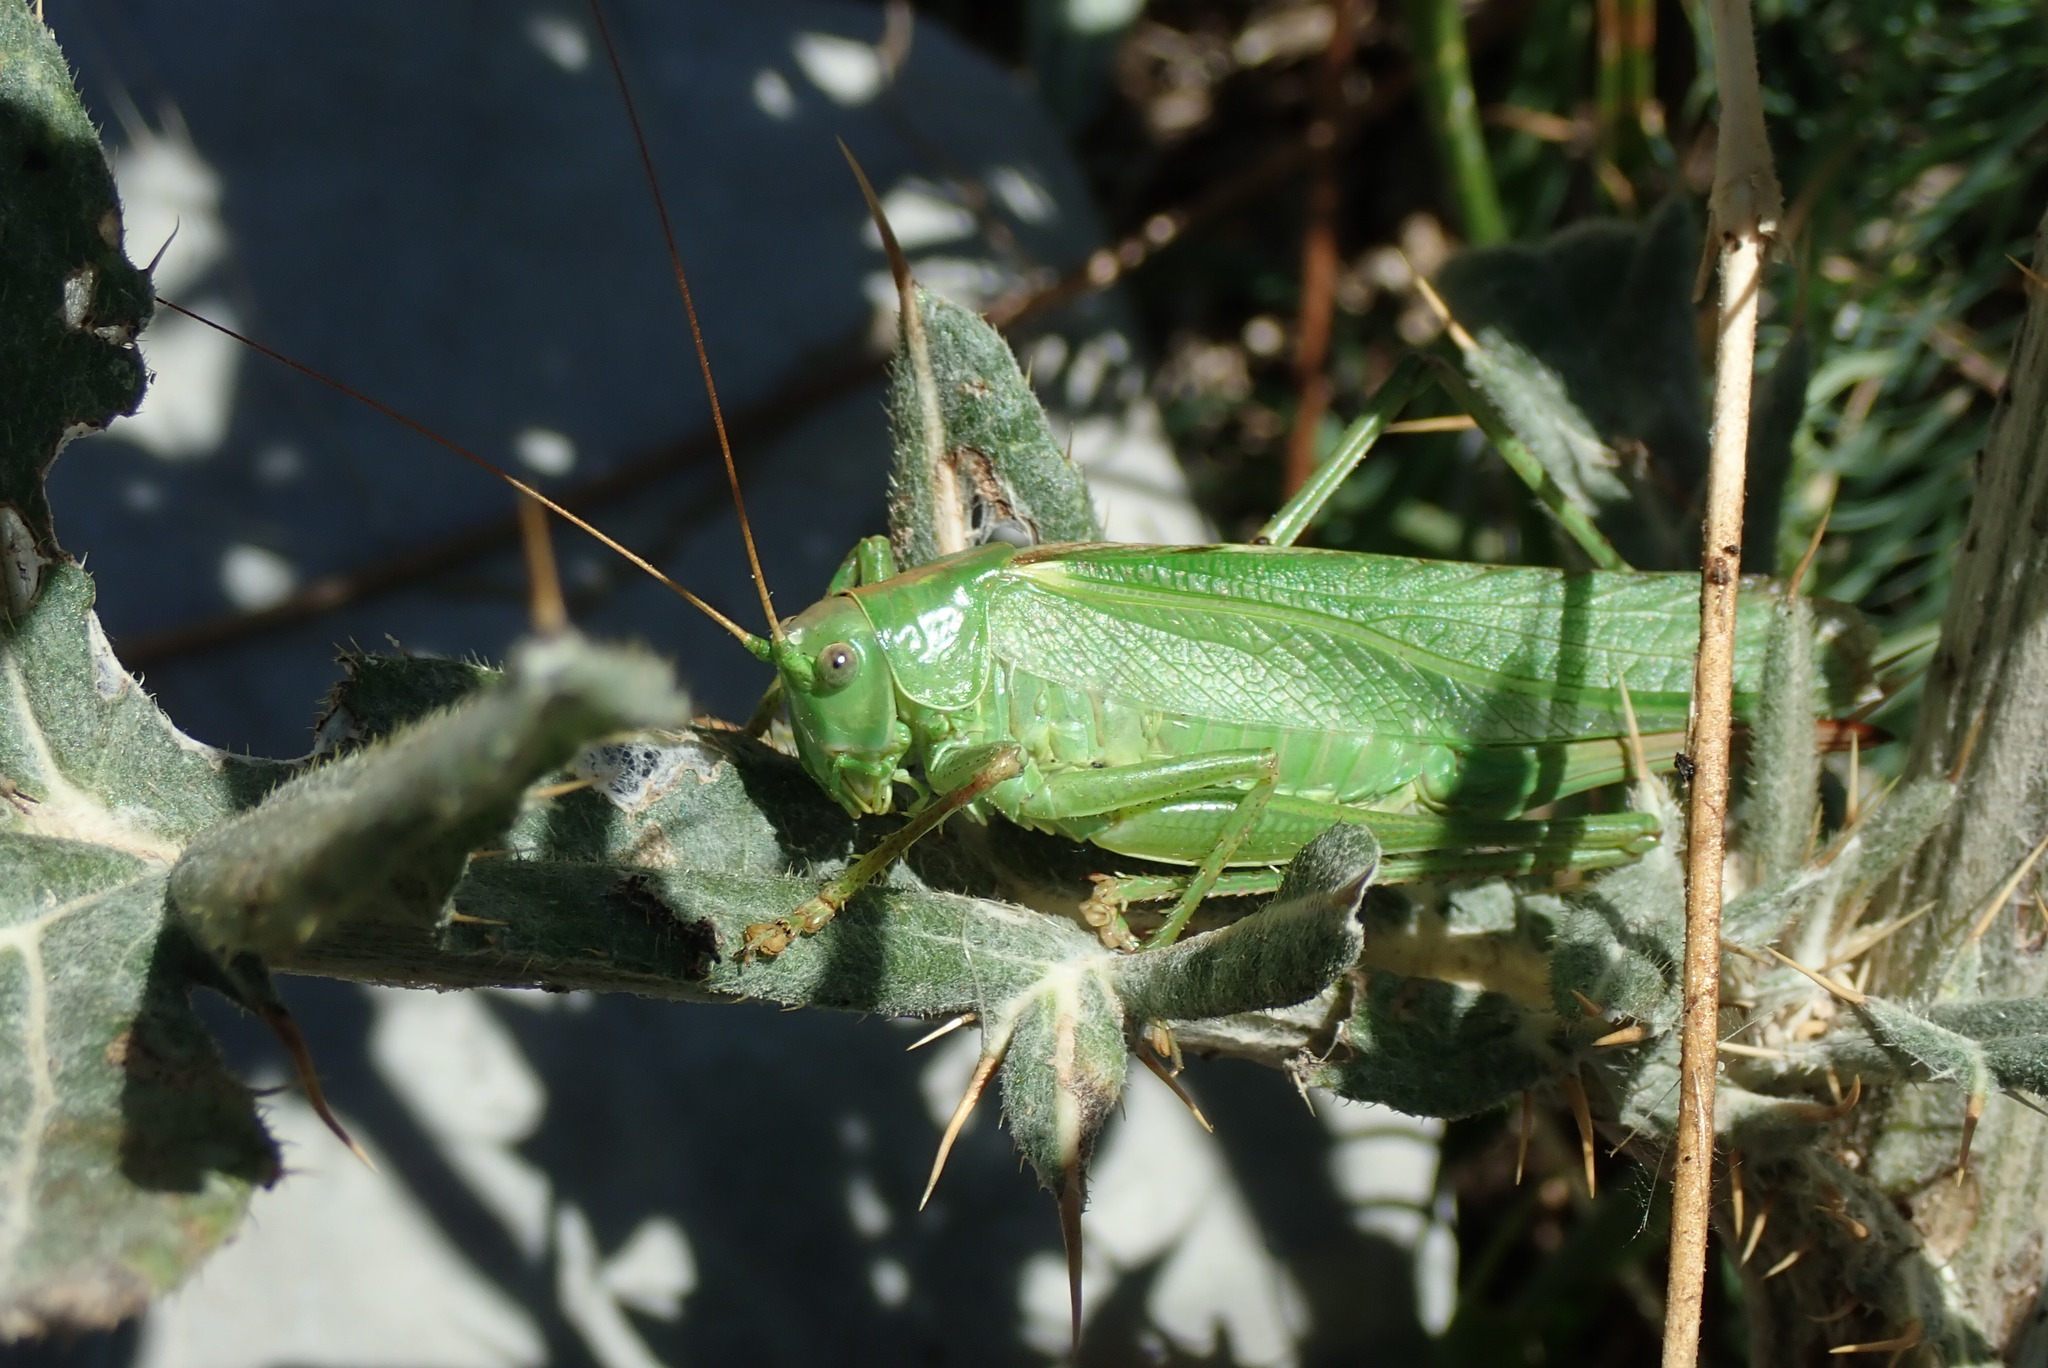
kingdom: Animalia
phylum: Arthropoda
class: Insecta
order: Orthoptera
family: Tettigoniidae
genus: Tettigonia
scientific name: Tettigonia viridissima
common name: Great green bush-cricket
